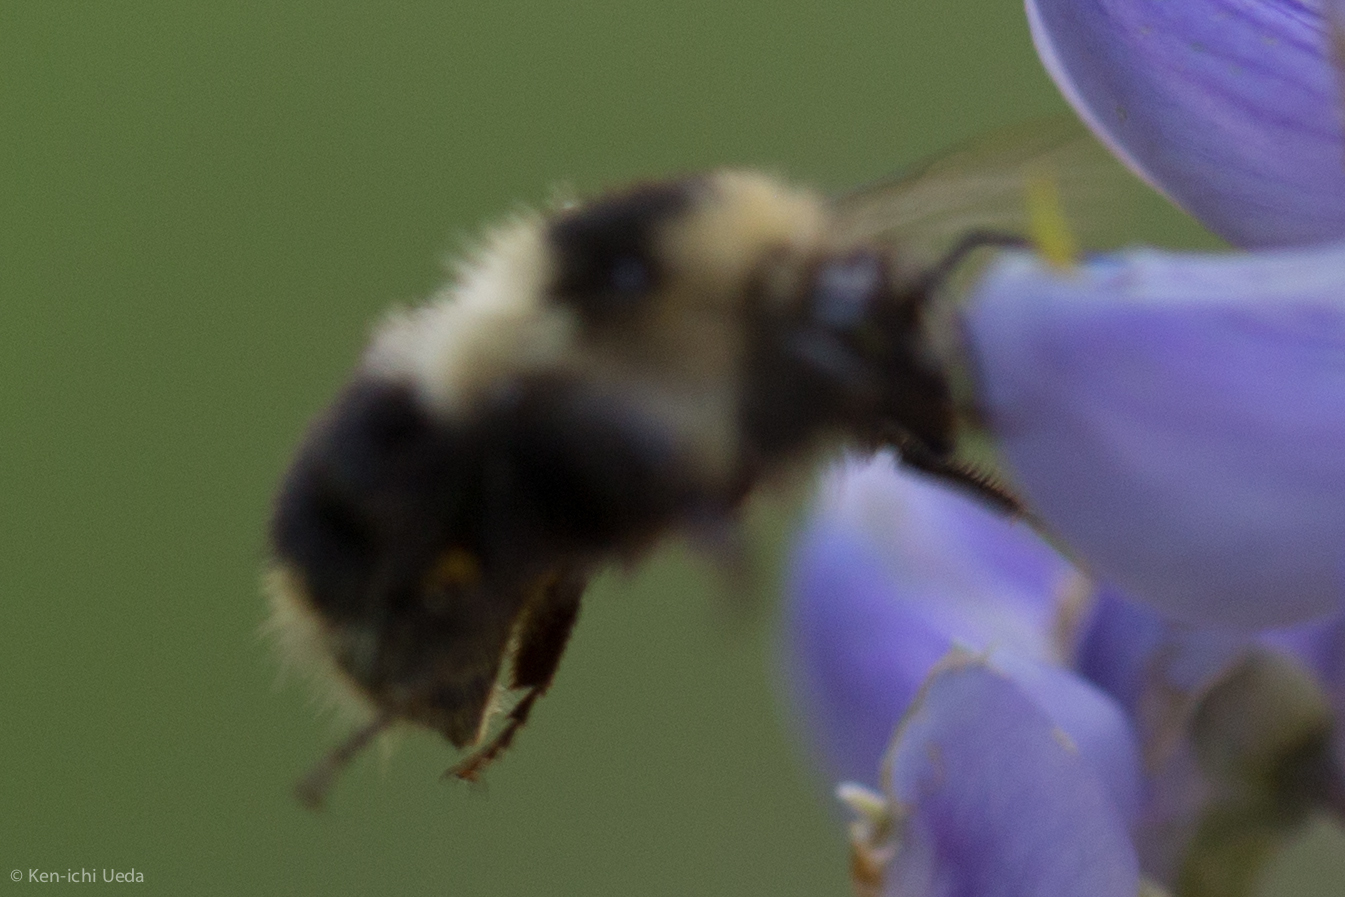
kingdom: Animalia
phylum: Arthropoda
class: Insecta
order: Hymenoptera
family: Apidae
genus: Bombus
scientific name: Bombus melanopygus
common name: Black tail bumble bee
